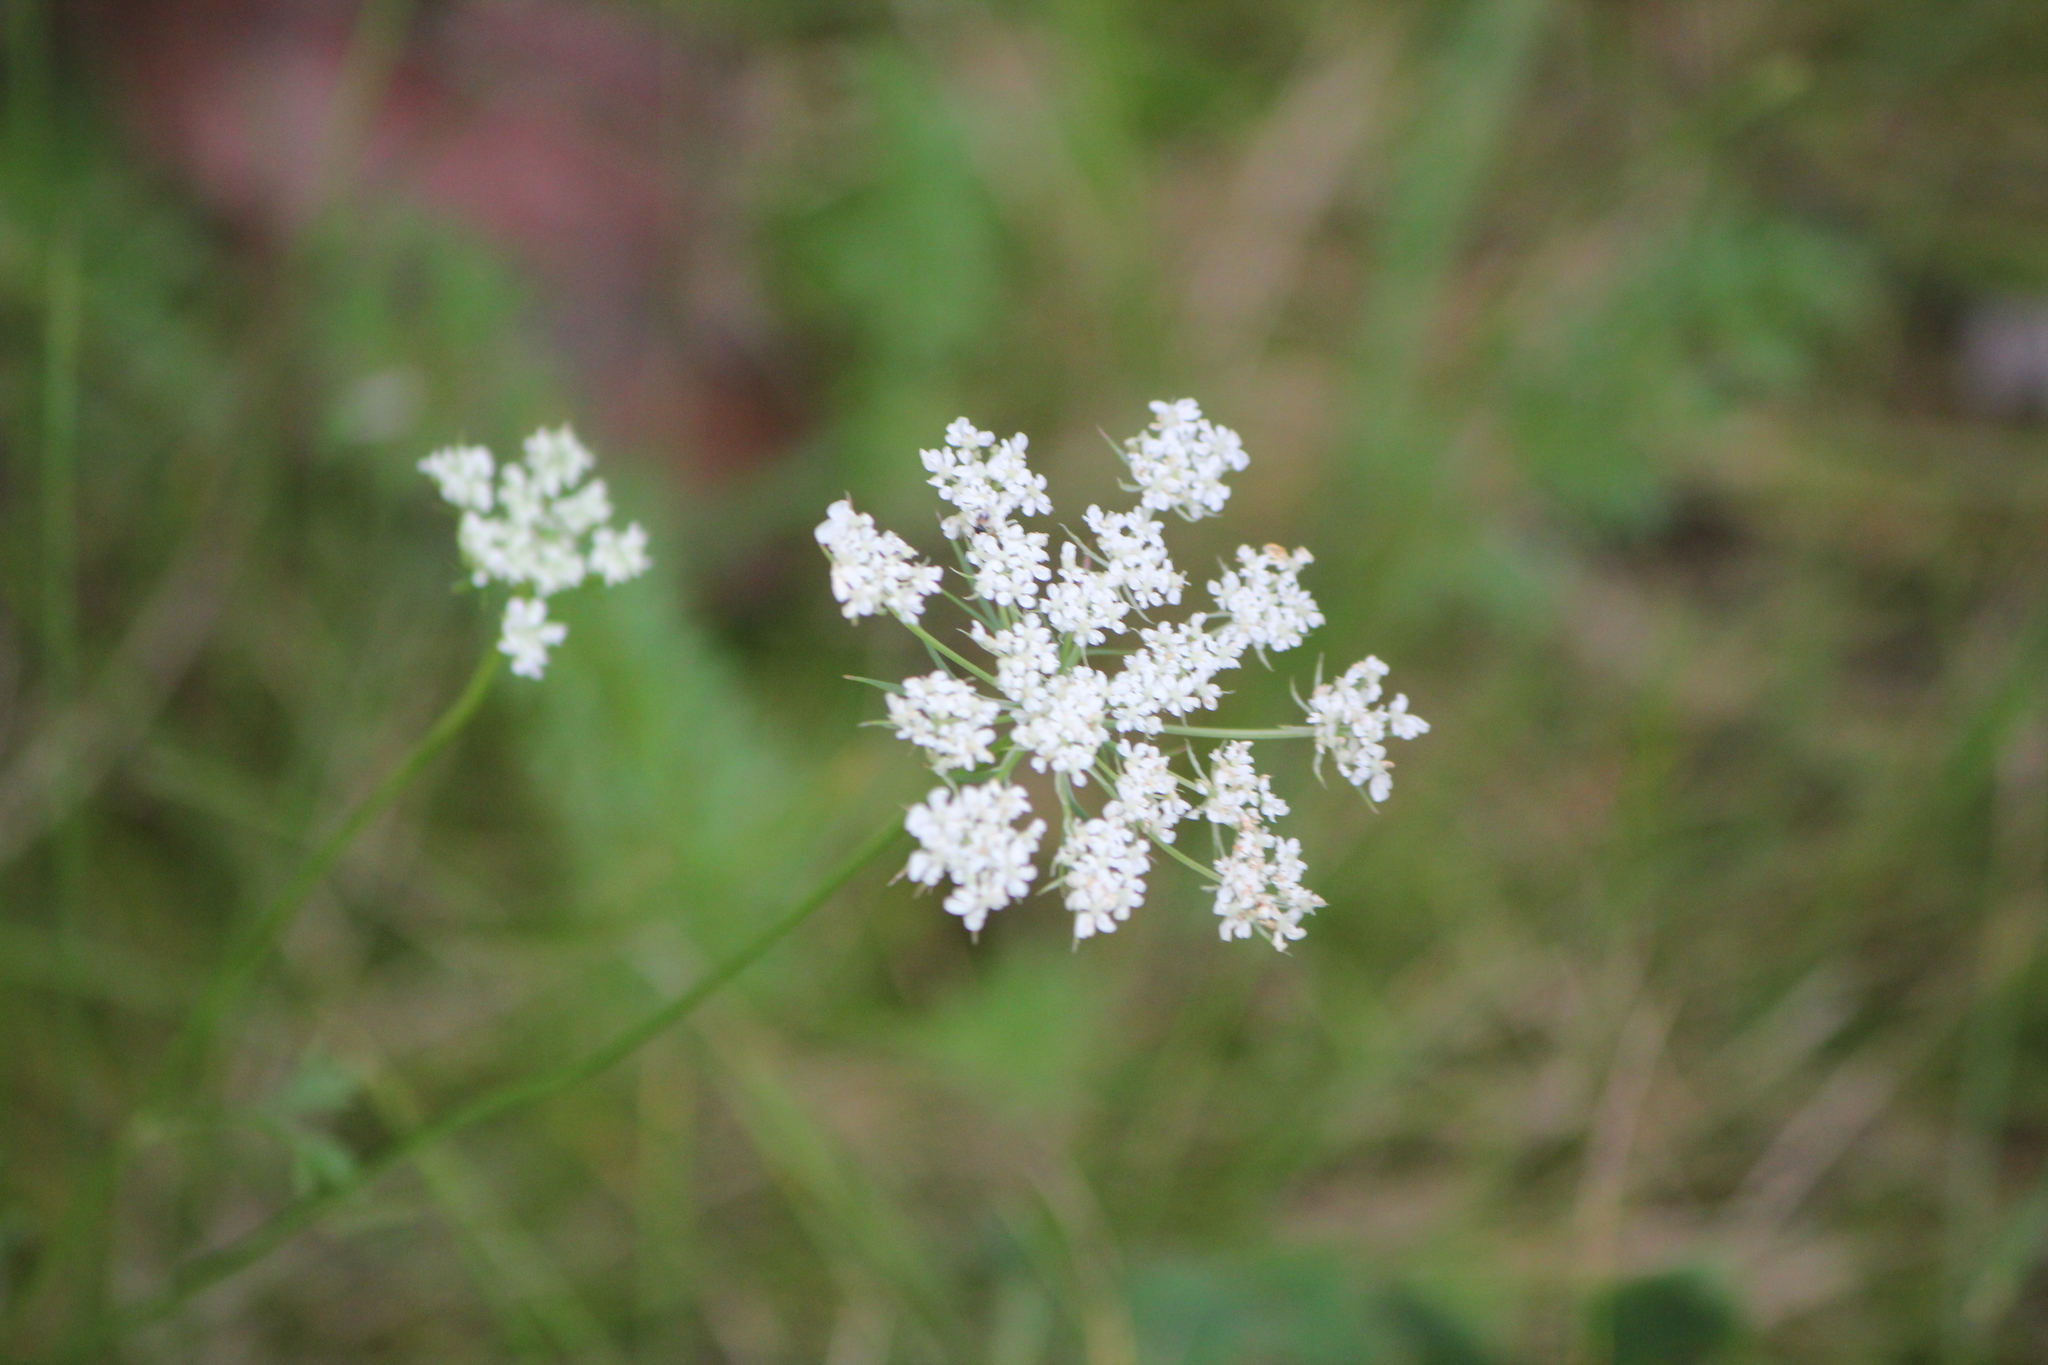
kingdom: Plantae
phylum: Tracheophyta
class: Magnoliopsida
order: Apiales
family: Apiaceae
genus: Daucus
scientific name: Daucus carota
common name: Wild carrot
